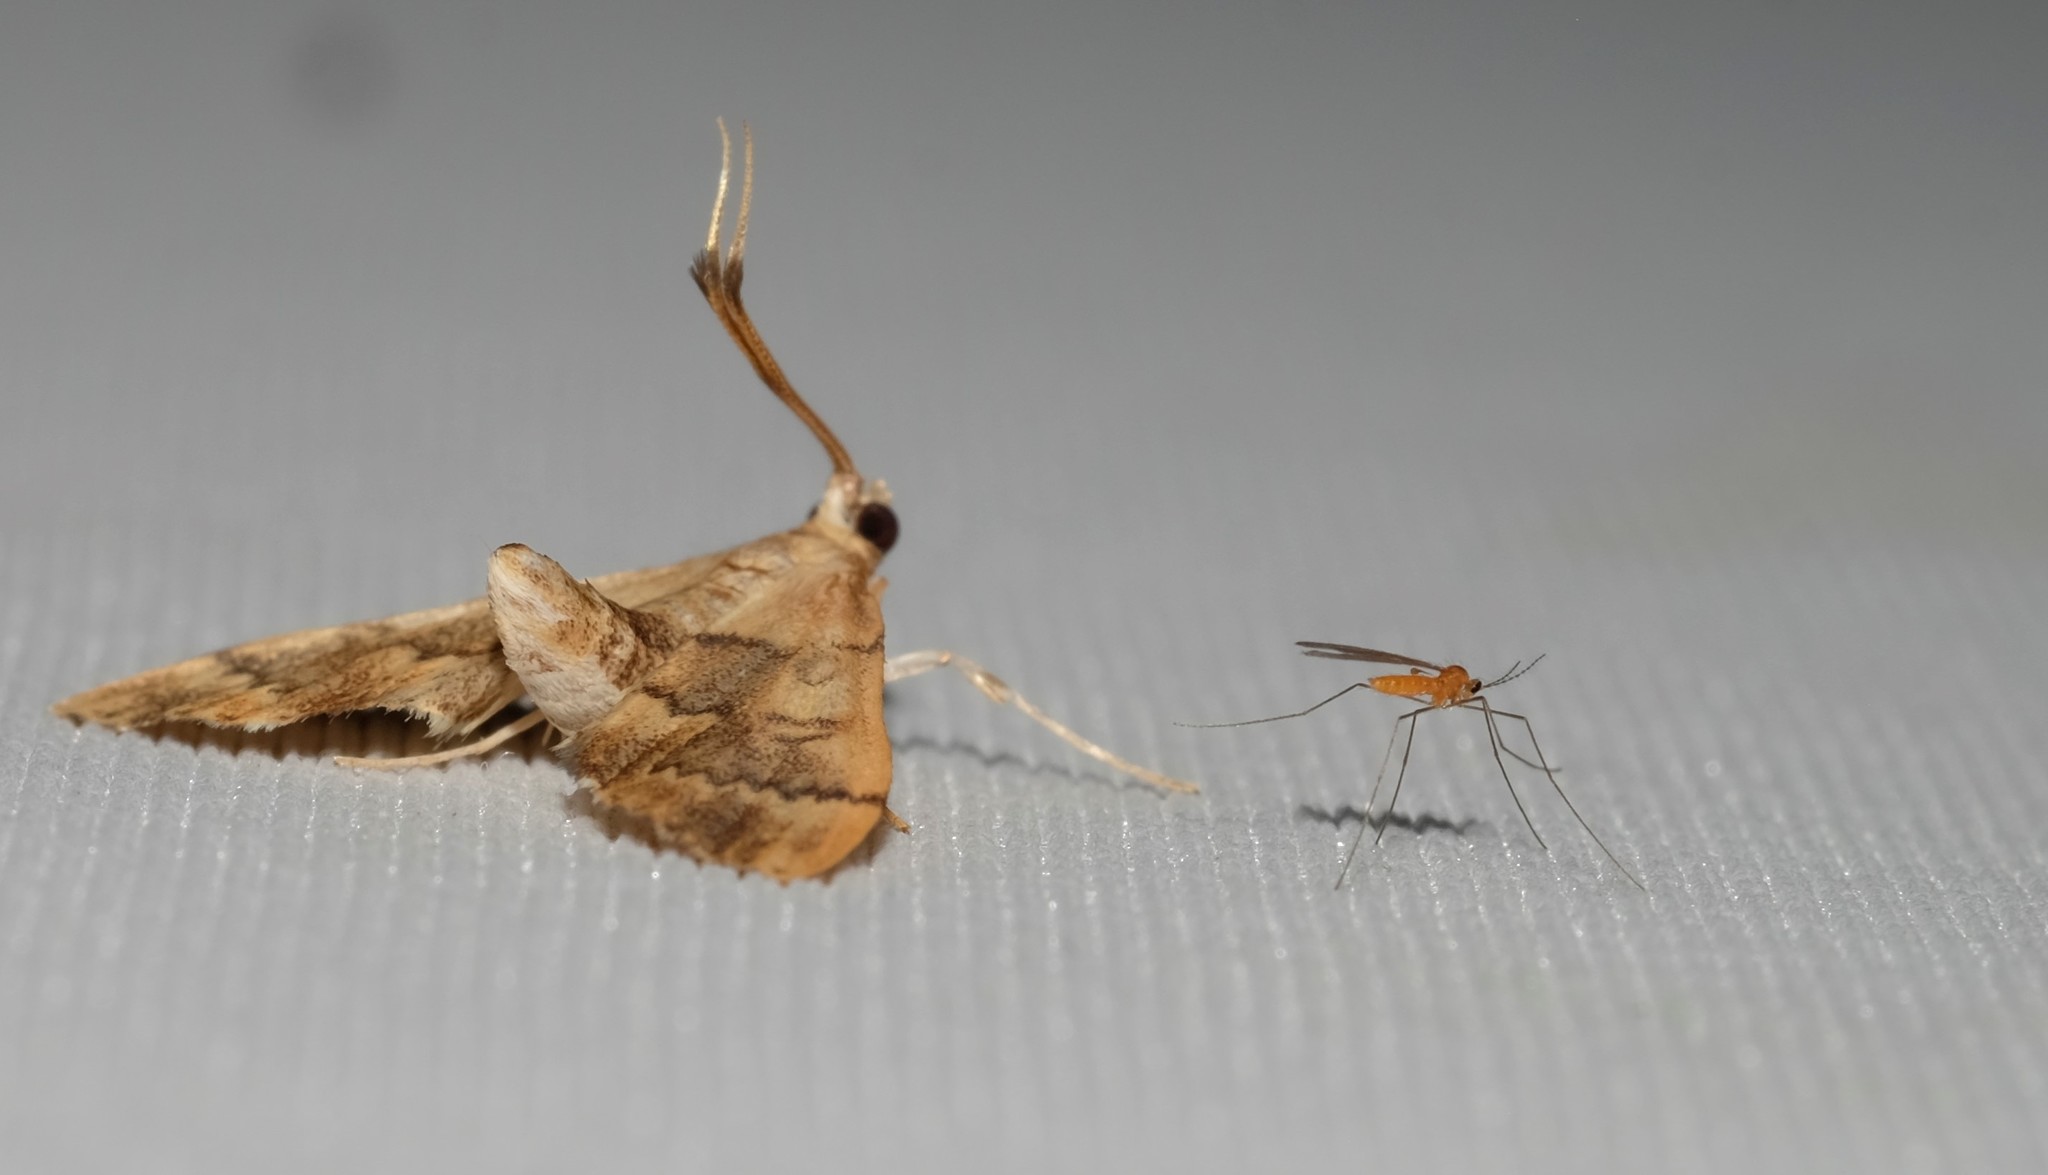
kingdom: Animalia
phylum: Arthropoda
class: Insecta
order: Lepidoptera
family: Crambidae
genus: Nacoleia
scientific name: Nacoleia oncophragma
